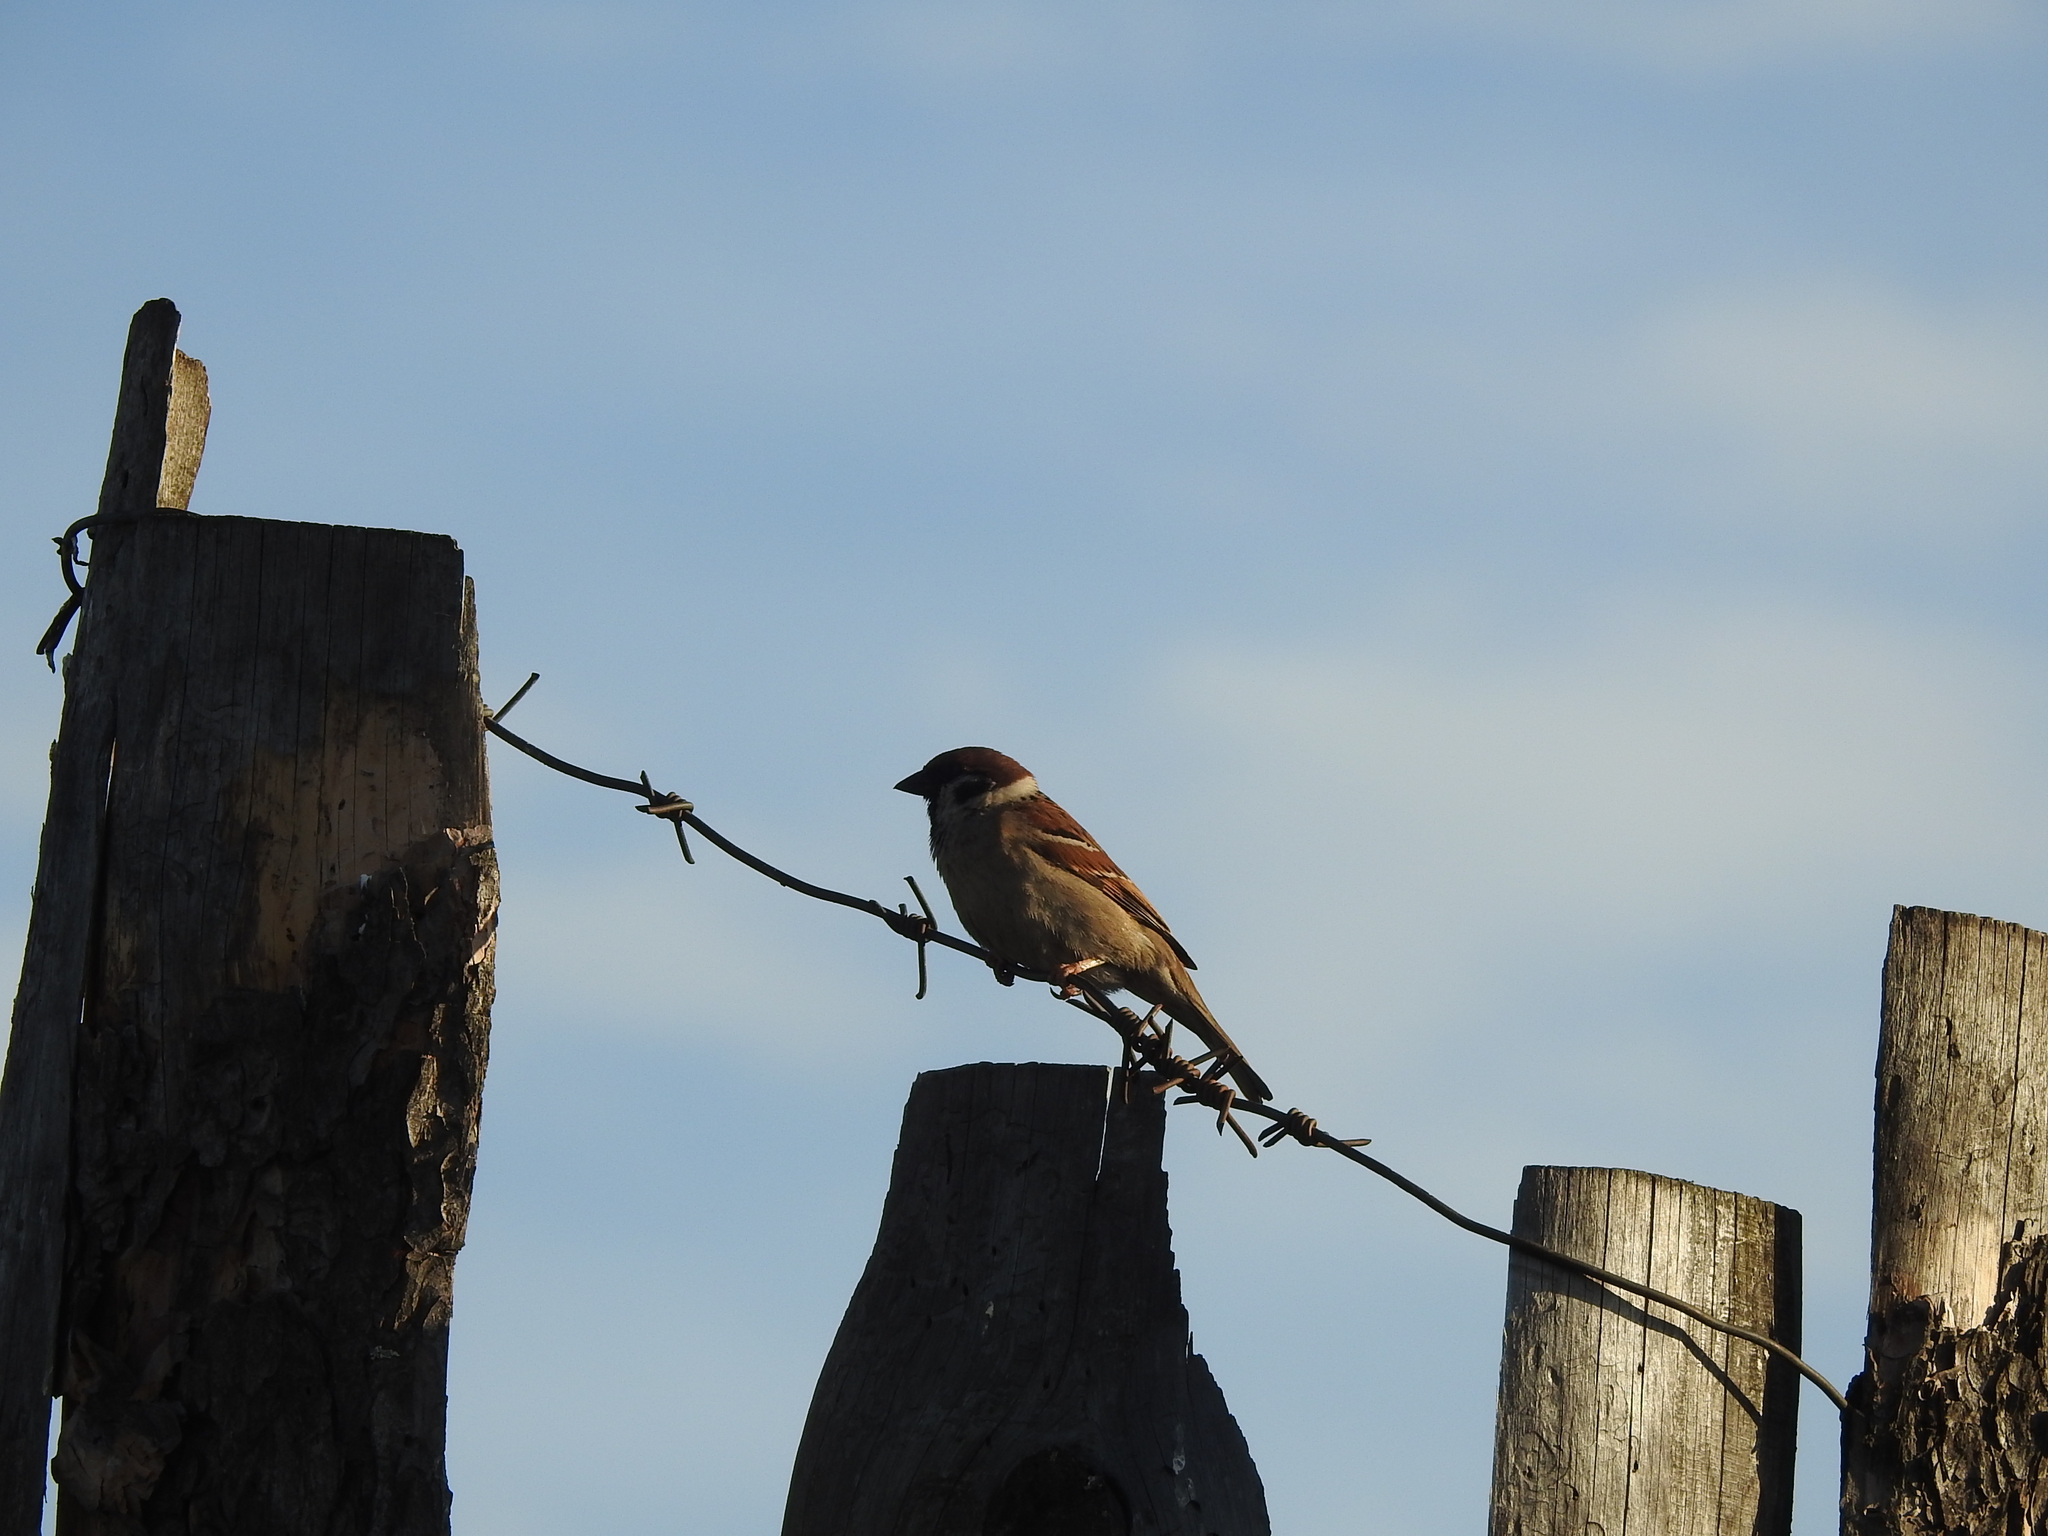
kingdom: Animalia
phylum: Chordata
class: Aves
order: Passeriformes
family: Passeridae
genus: Passer
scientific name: Passer montanus
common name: Eurasian tree sparrow
